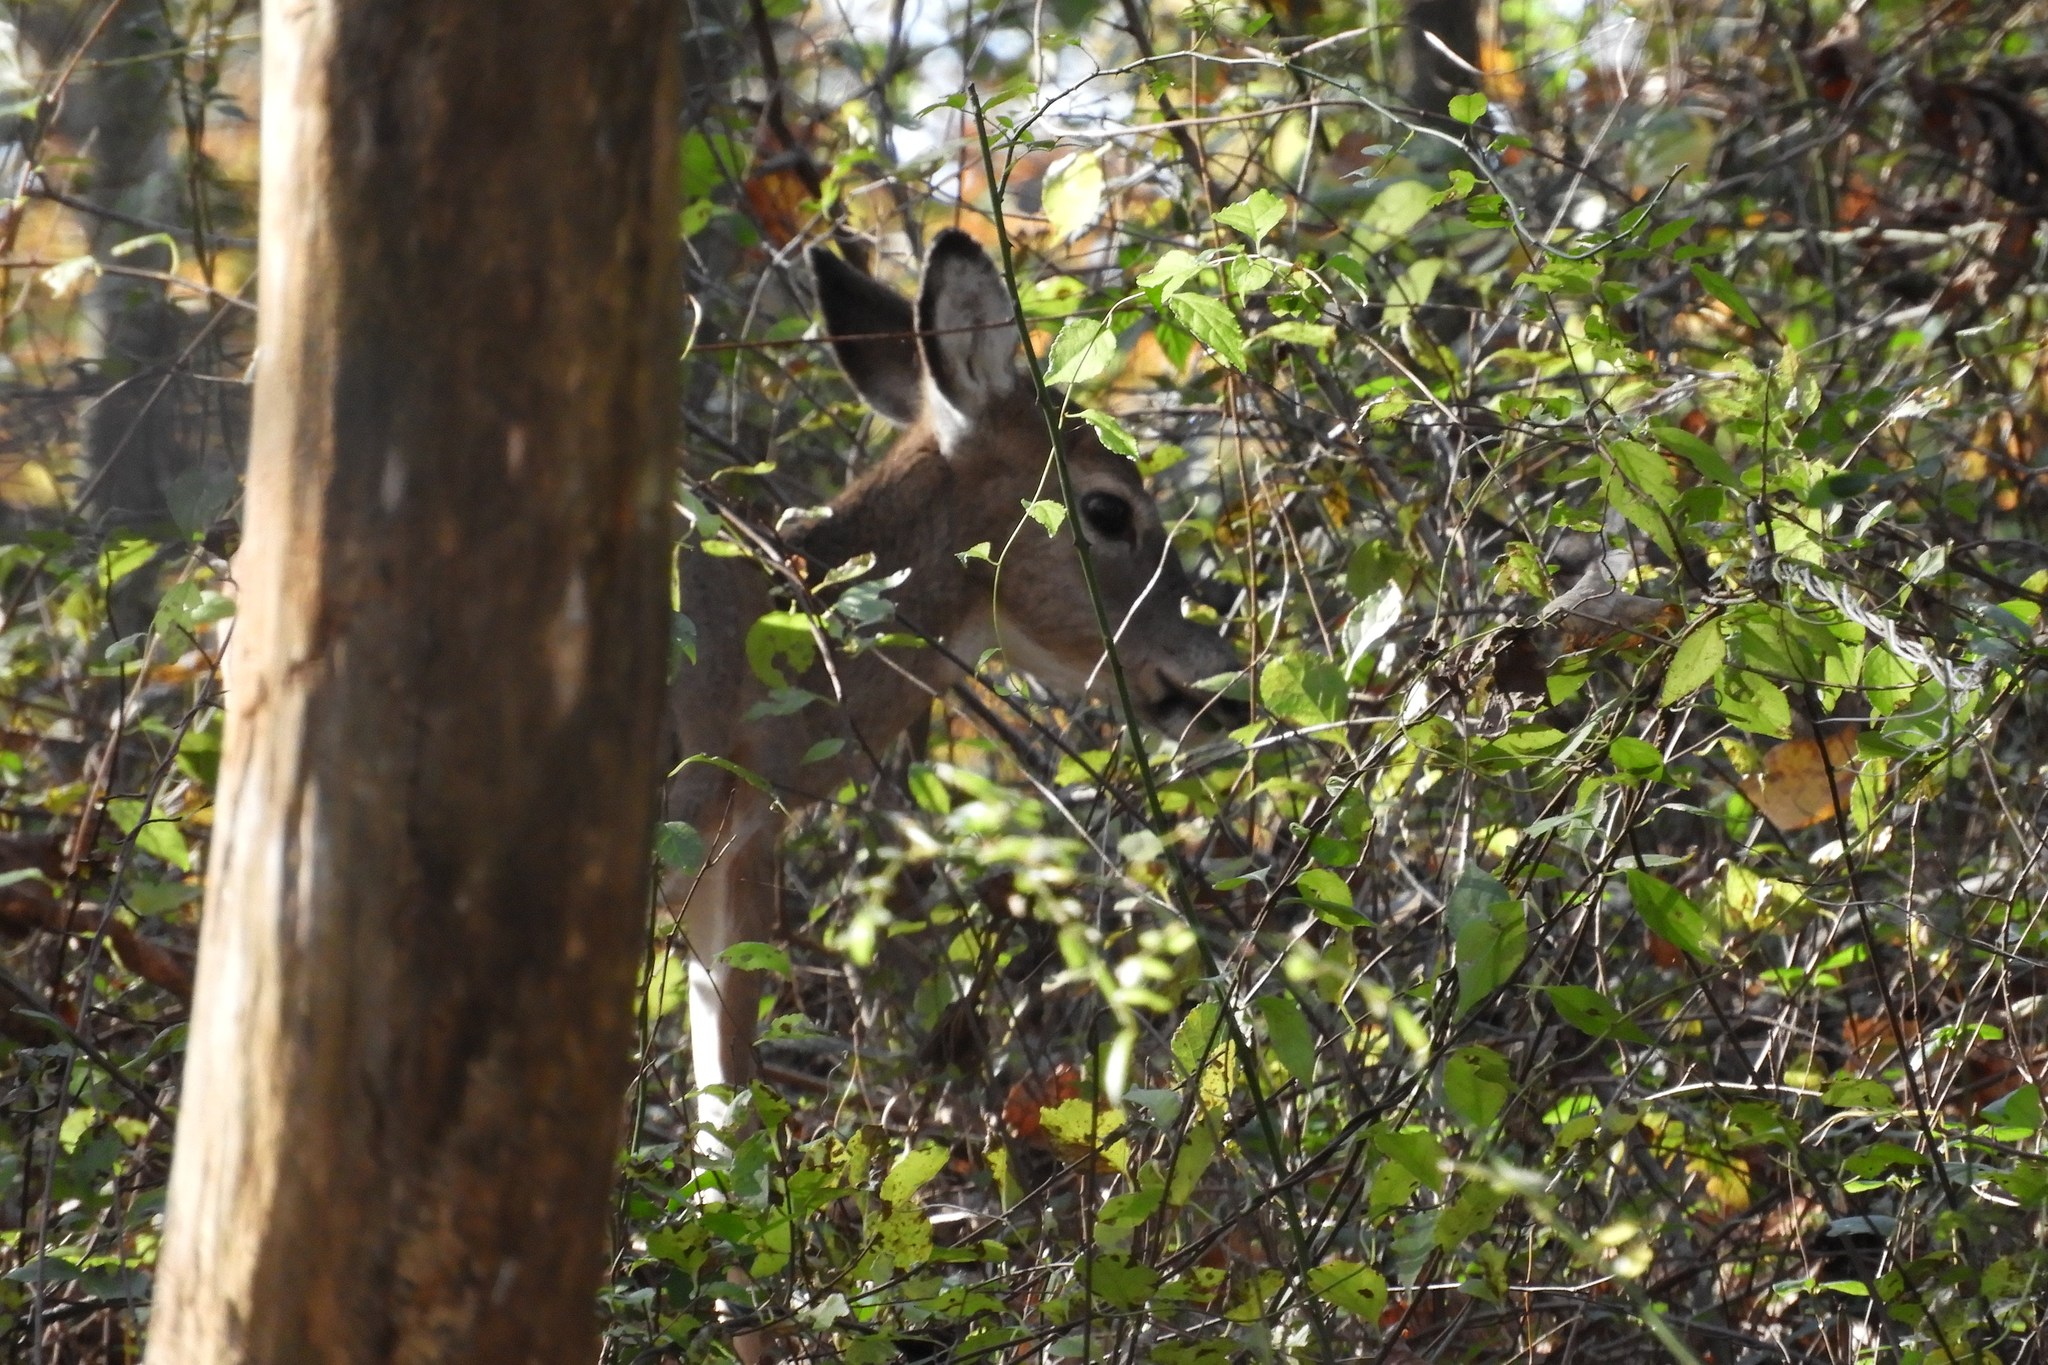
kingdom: Animalia
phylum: Chordata
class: Mammalia
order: Artiodactyla
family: Cervidae
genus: Odocoileus
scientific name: Odocoileus virginianus
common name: White-tailed deer
